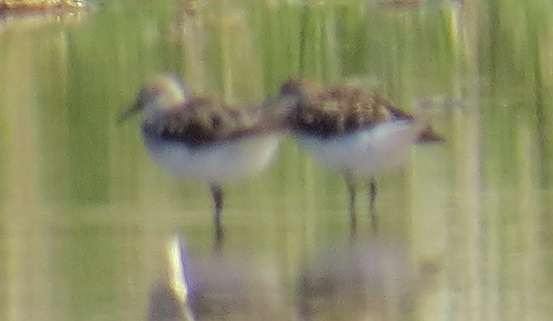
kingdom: Animalia
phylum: Chordata
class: Aves
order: Charadriiformes
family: Scolopacidae
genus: Calidris
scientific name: Calidris
